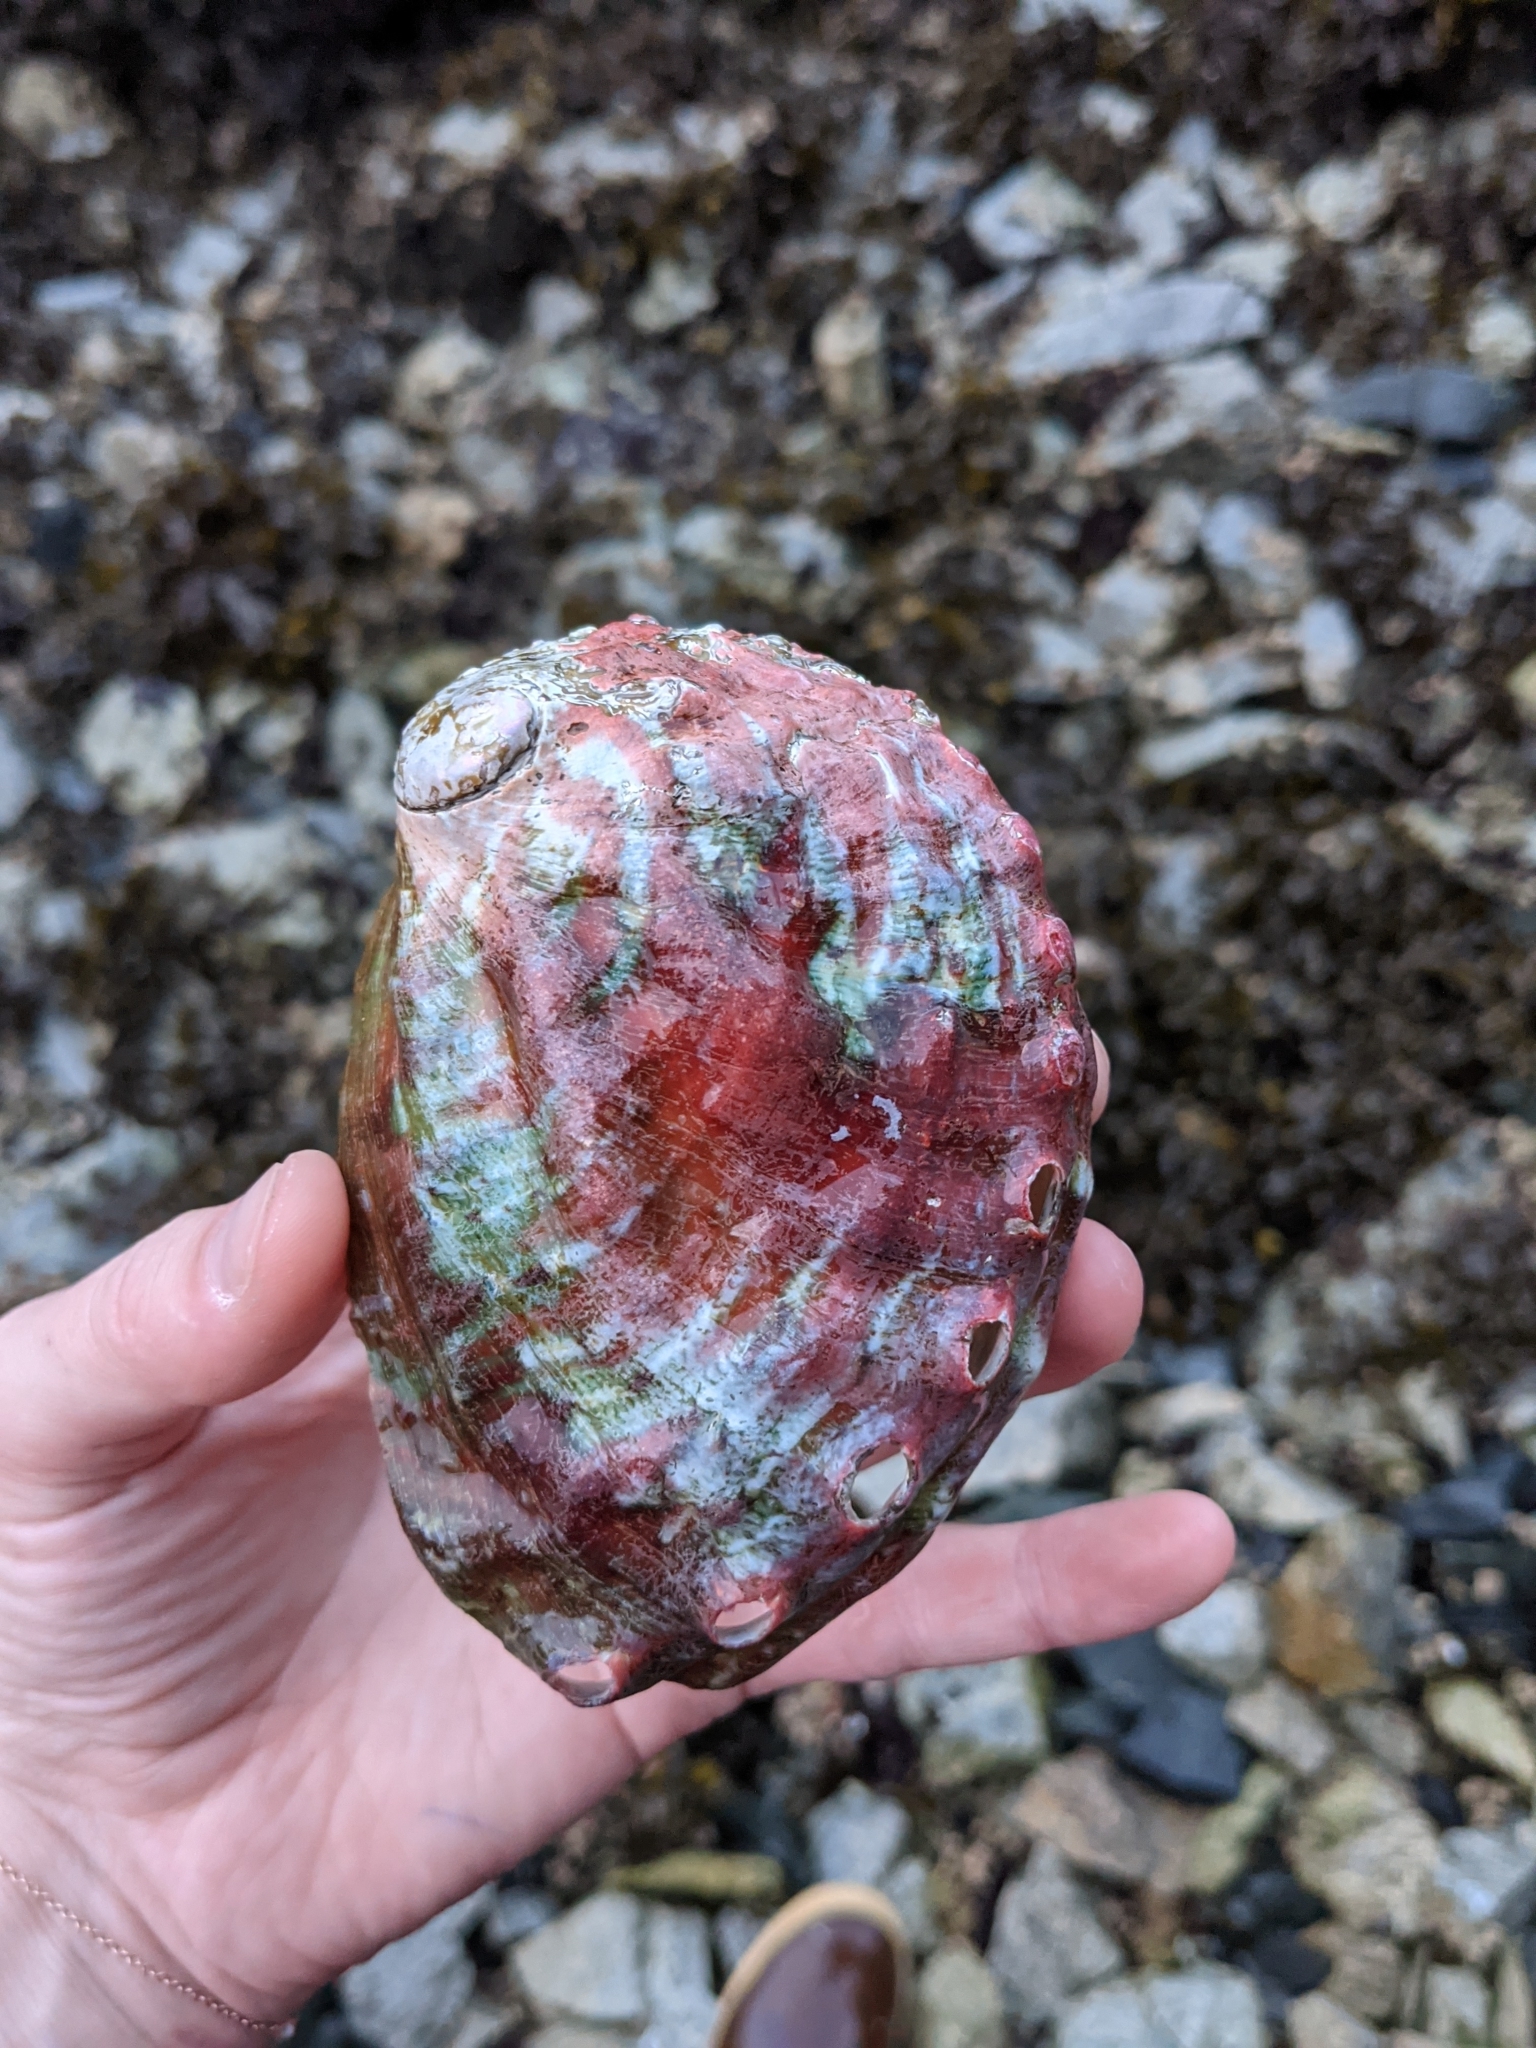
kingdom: Animalia
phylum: Mollusca
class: Gastropoda
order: Lepetellida
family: Haliotidae
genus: Haliotis
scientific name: Haliotis kamtschatkana
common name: Pinto abalone
